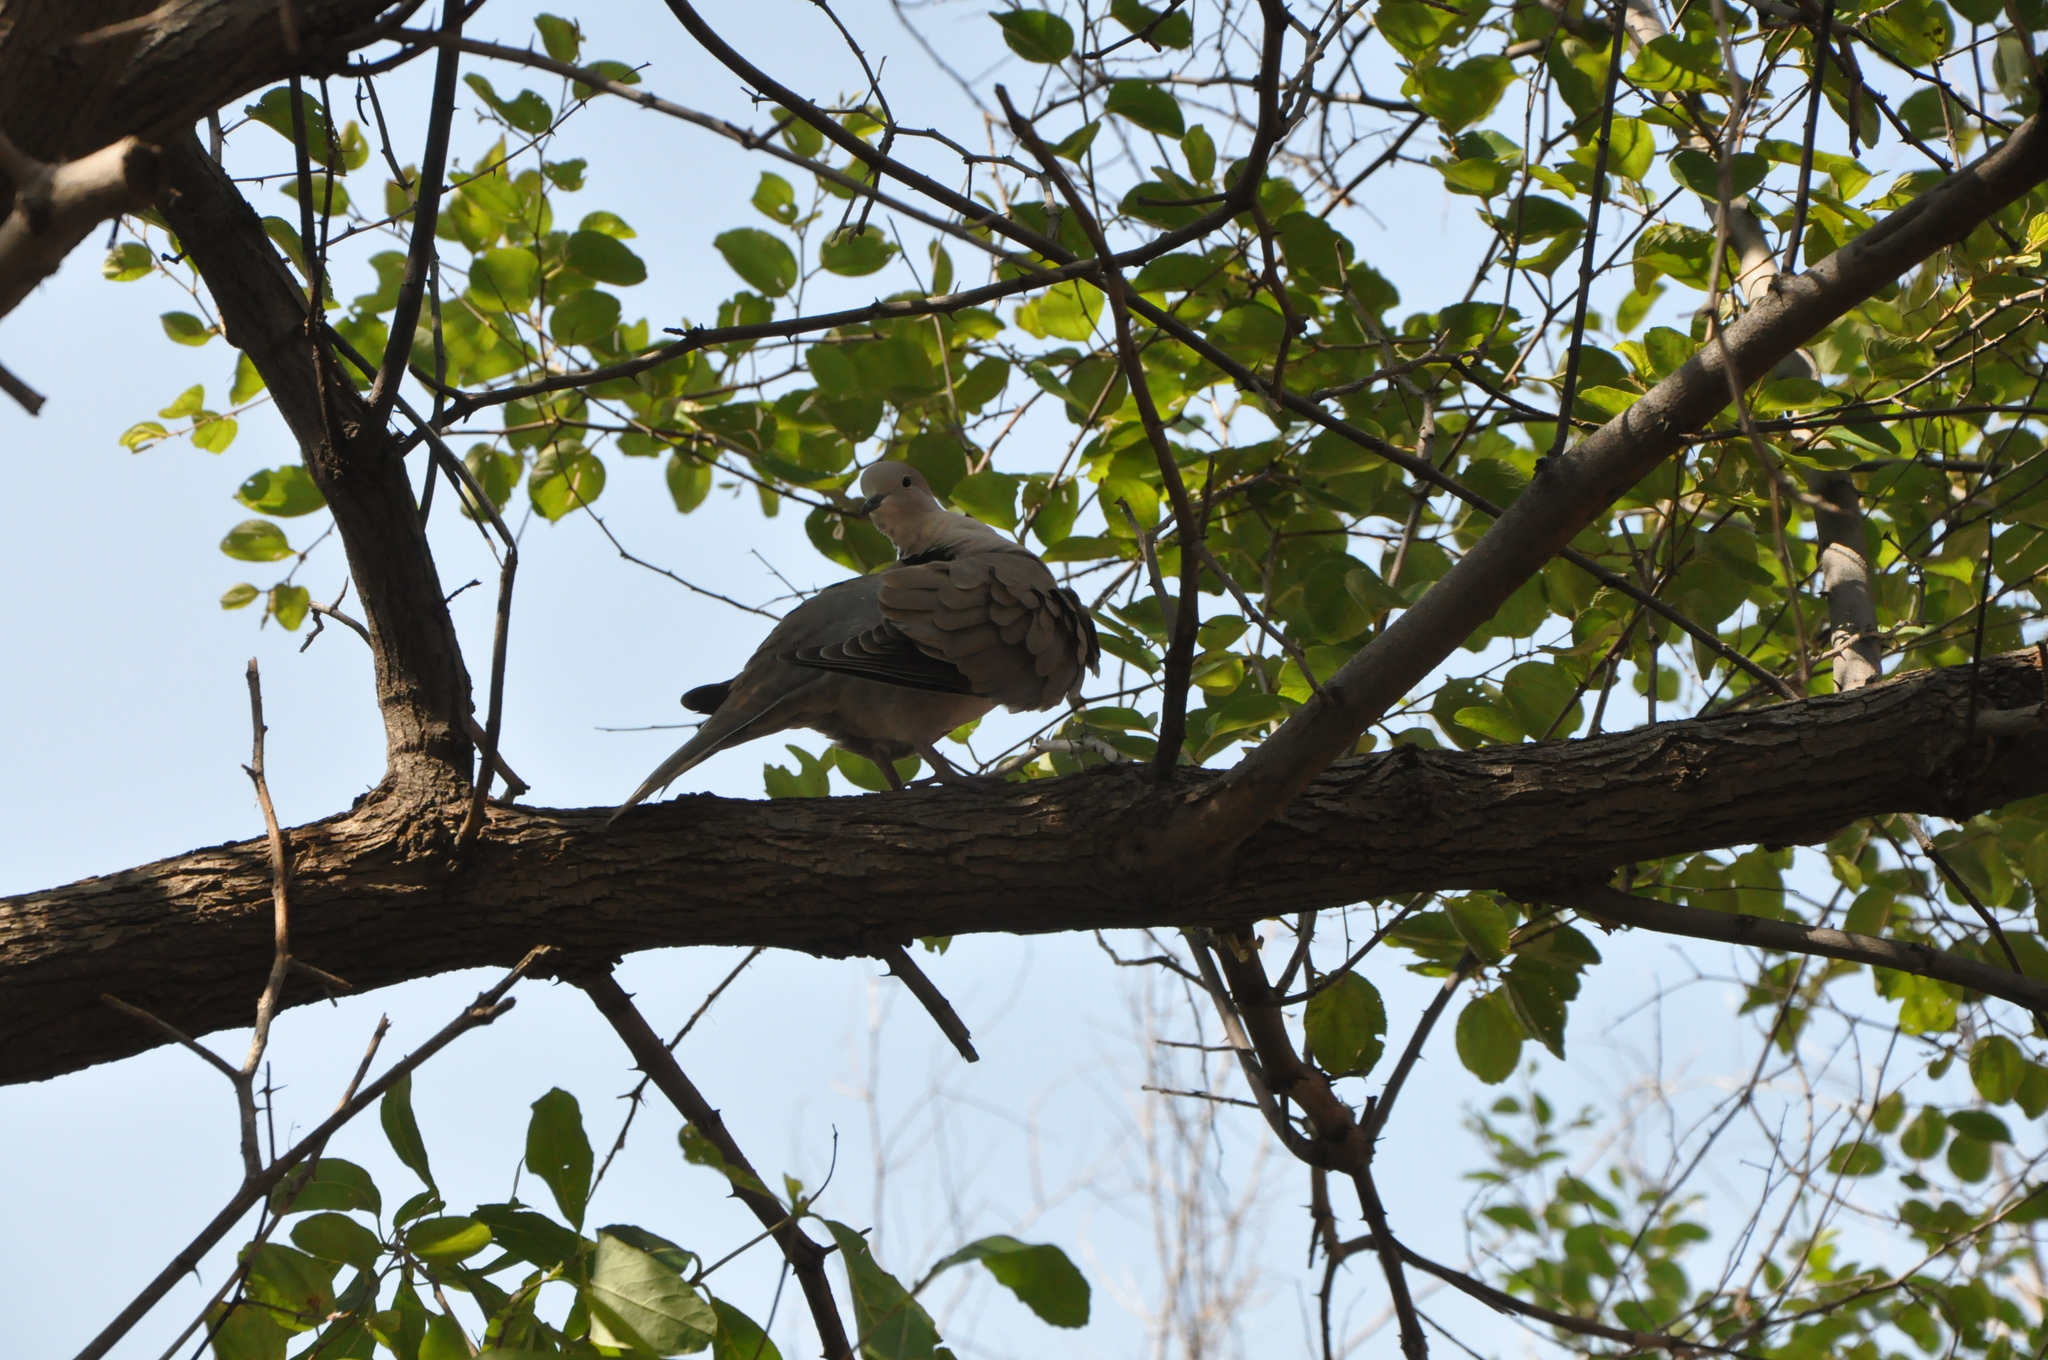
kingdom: Animalia
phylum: Chordata
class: Aves
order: Columbiformes
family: Columbidae
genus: Streptopelia
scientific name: Streptopelia decaocto
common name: Eurasian collared dove
